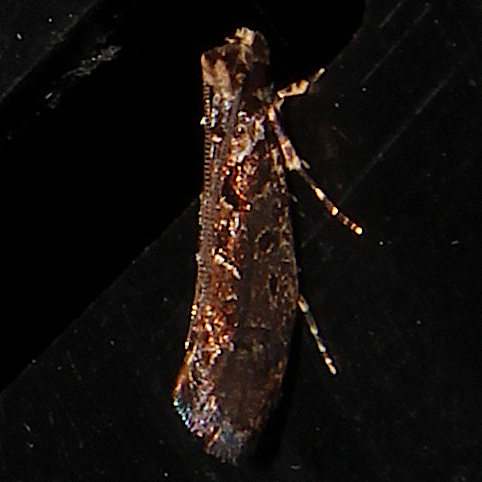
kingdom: Animalia
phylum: Arthropoda
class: Insecta
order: Lepidoptera
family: Tineidae
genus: Erechthias
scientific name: Erechthias capnitis
